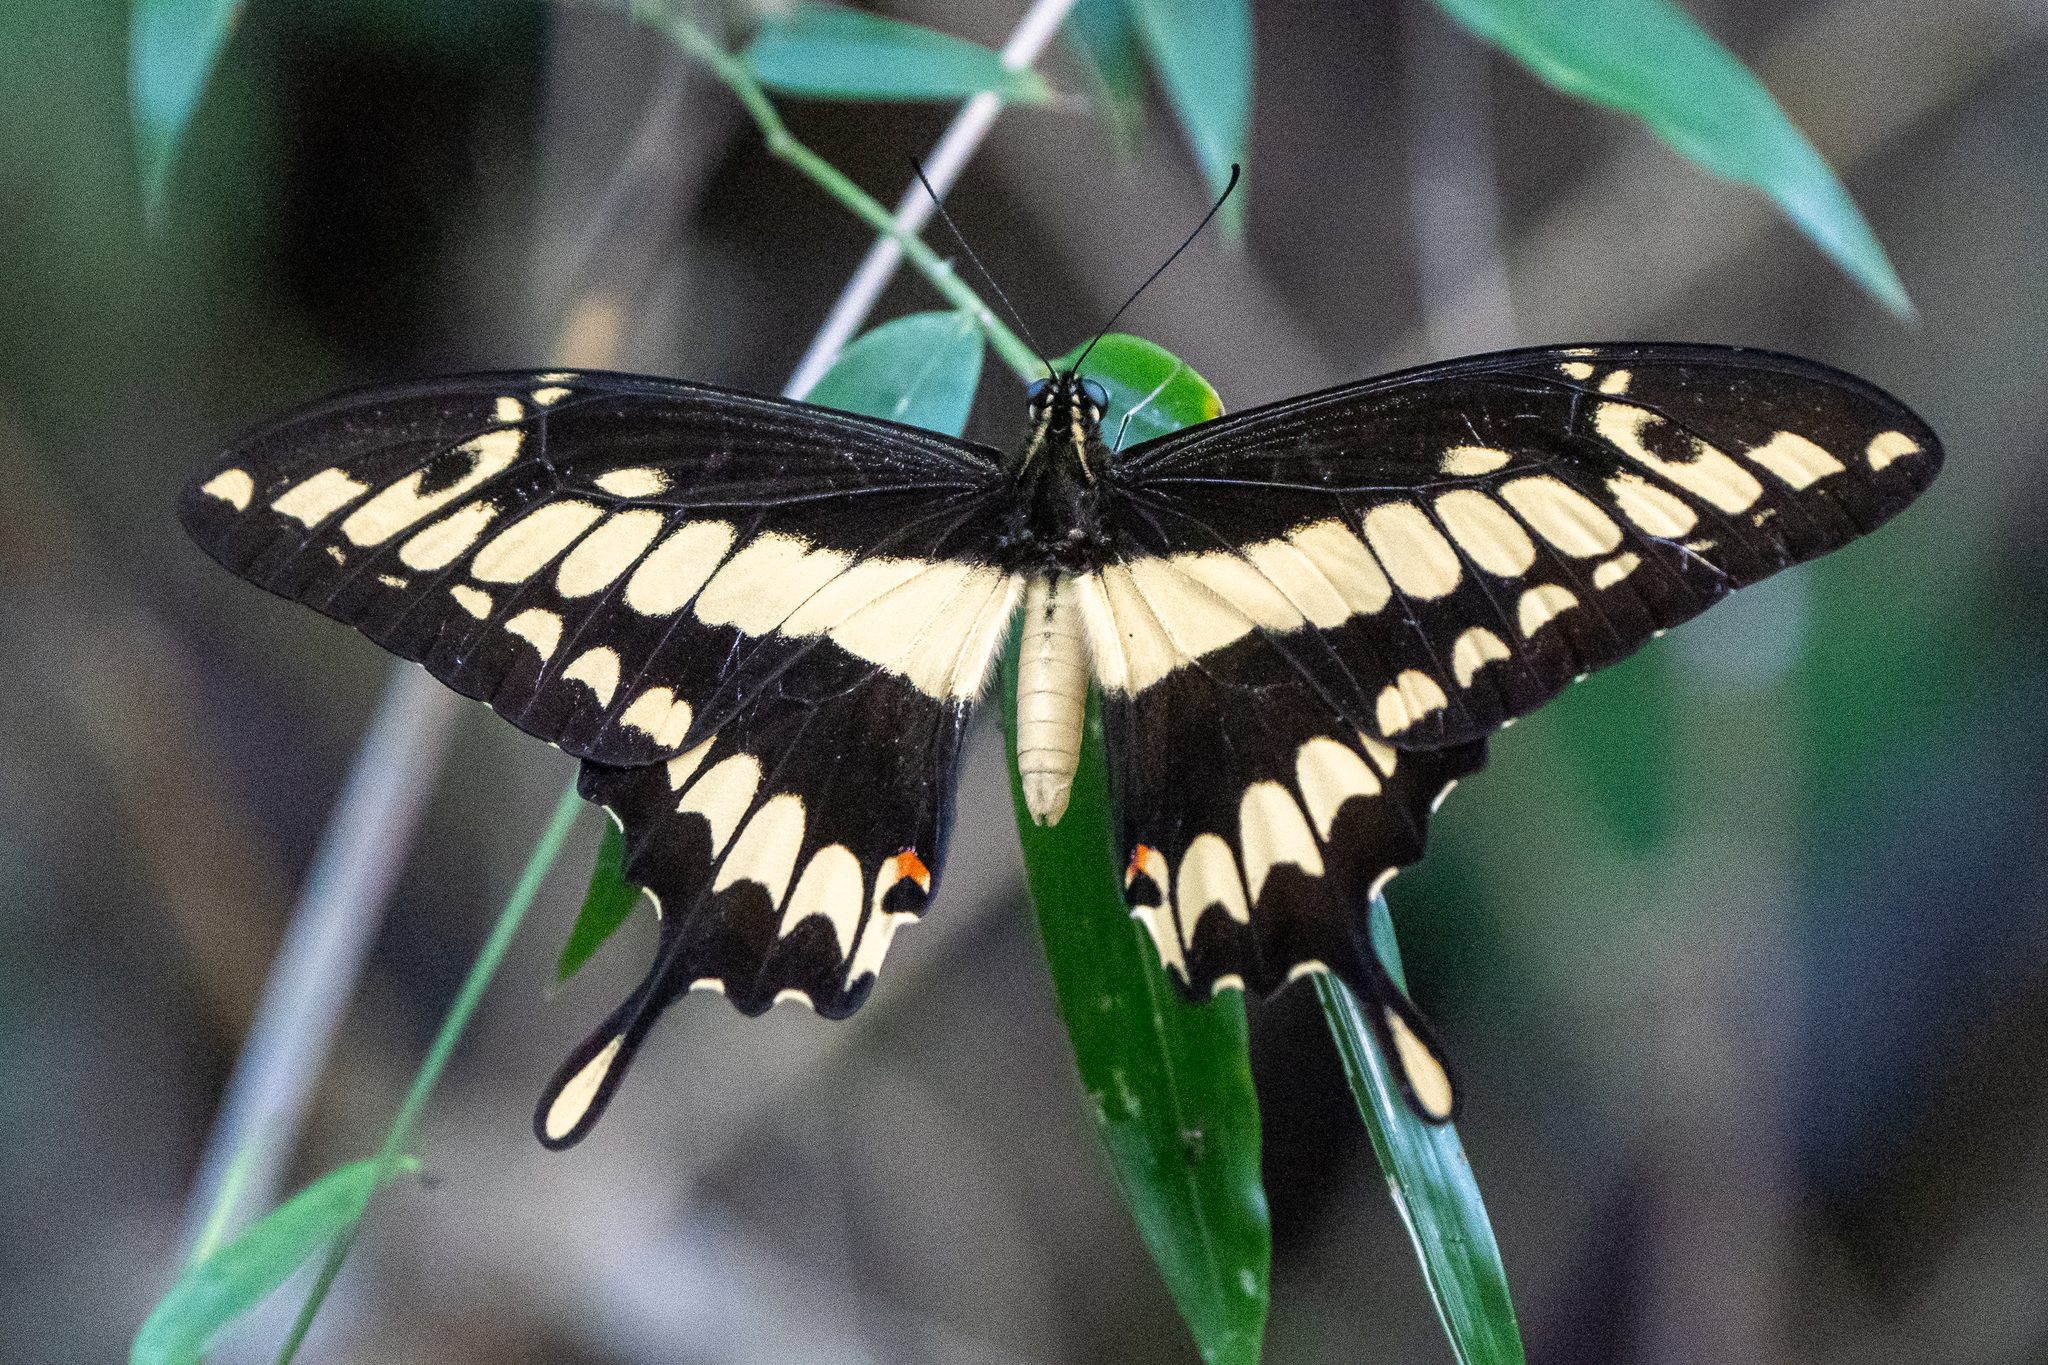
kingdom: Animalia
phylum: Arthropoda
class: Insecta
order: Lepidoptera
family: Papilionidae
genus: Papilio
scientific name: Papilio thoas
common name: King swallowtail
